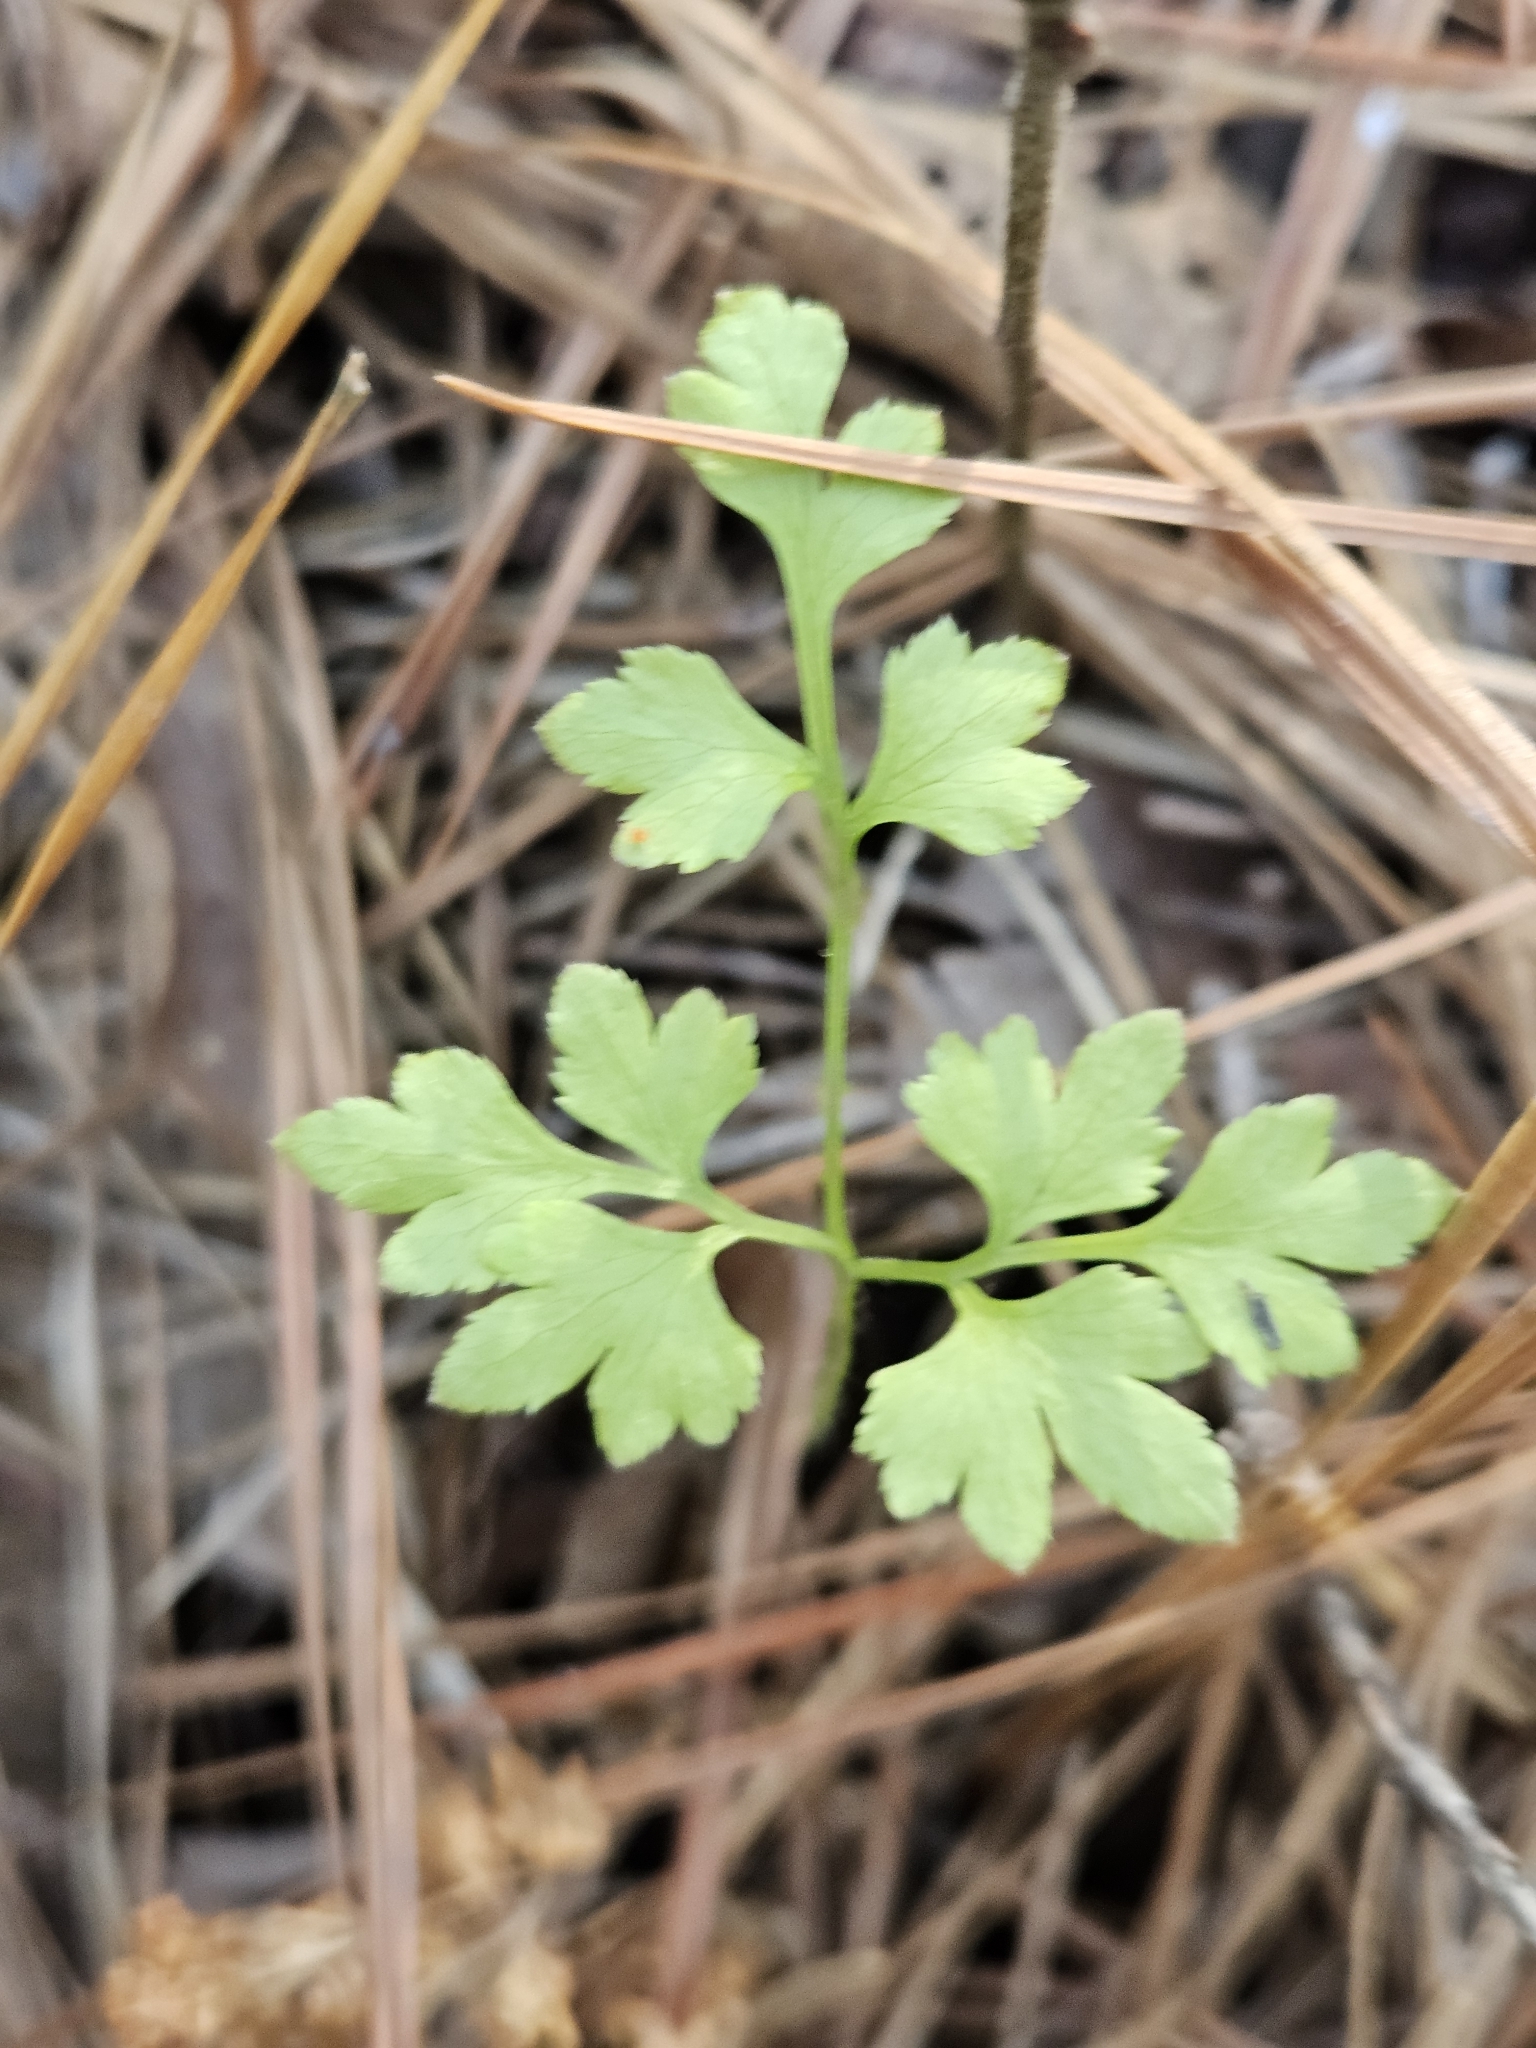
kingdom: Plantae
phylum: Tracheophyta
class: Polypodiopsida
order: Schizaeales
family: Lygodiaceae
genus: Lygodium
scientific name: Lygodium japonicum
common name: Japanese climbing fern
